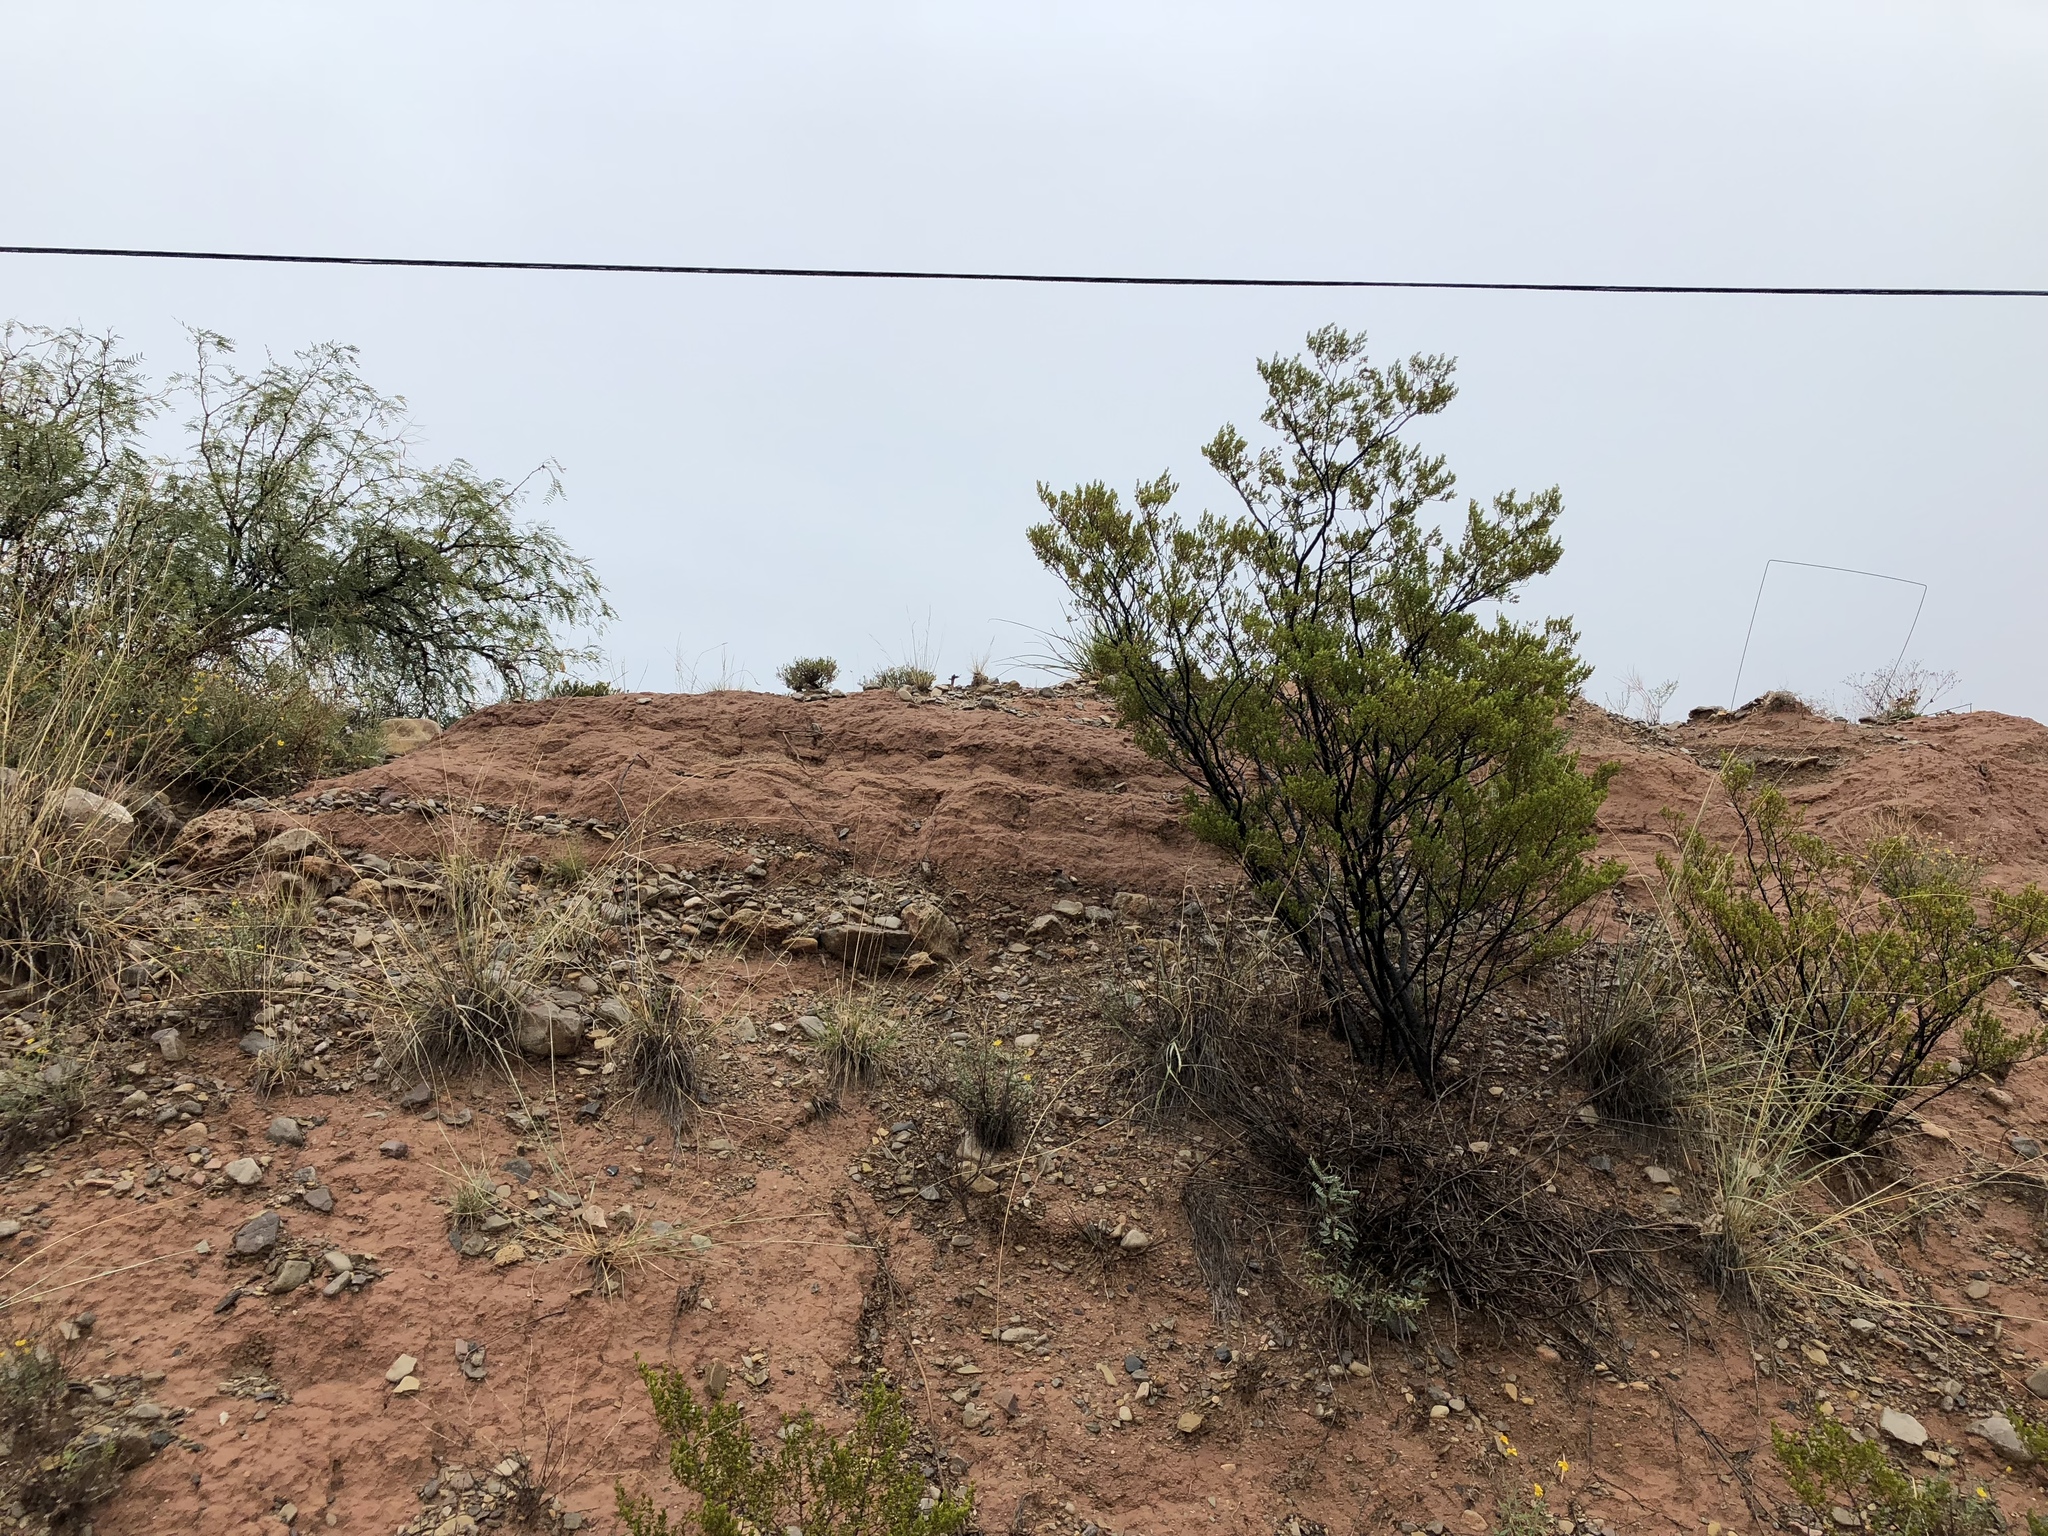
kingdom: Plantae
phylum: Tracheophyta
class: Magnoliopsida
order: Zygophyllales
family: Zygophyllaceae
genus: Larrea
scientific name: Larrea tridentata
